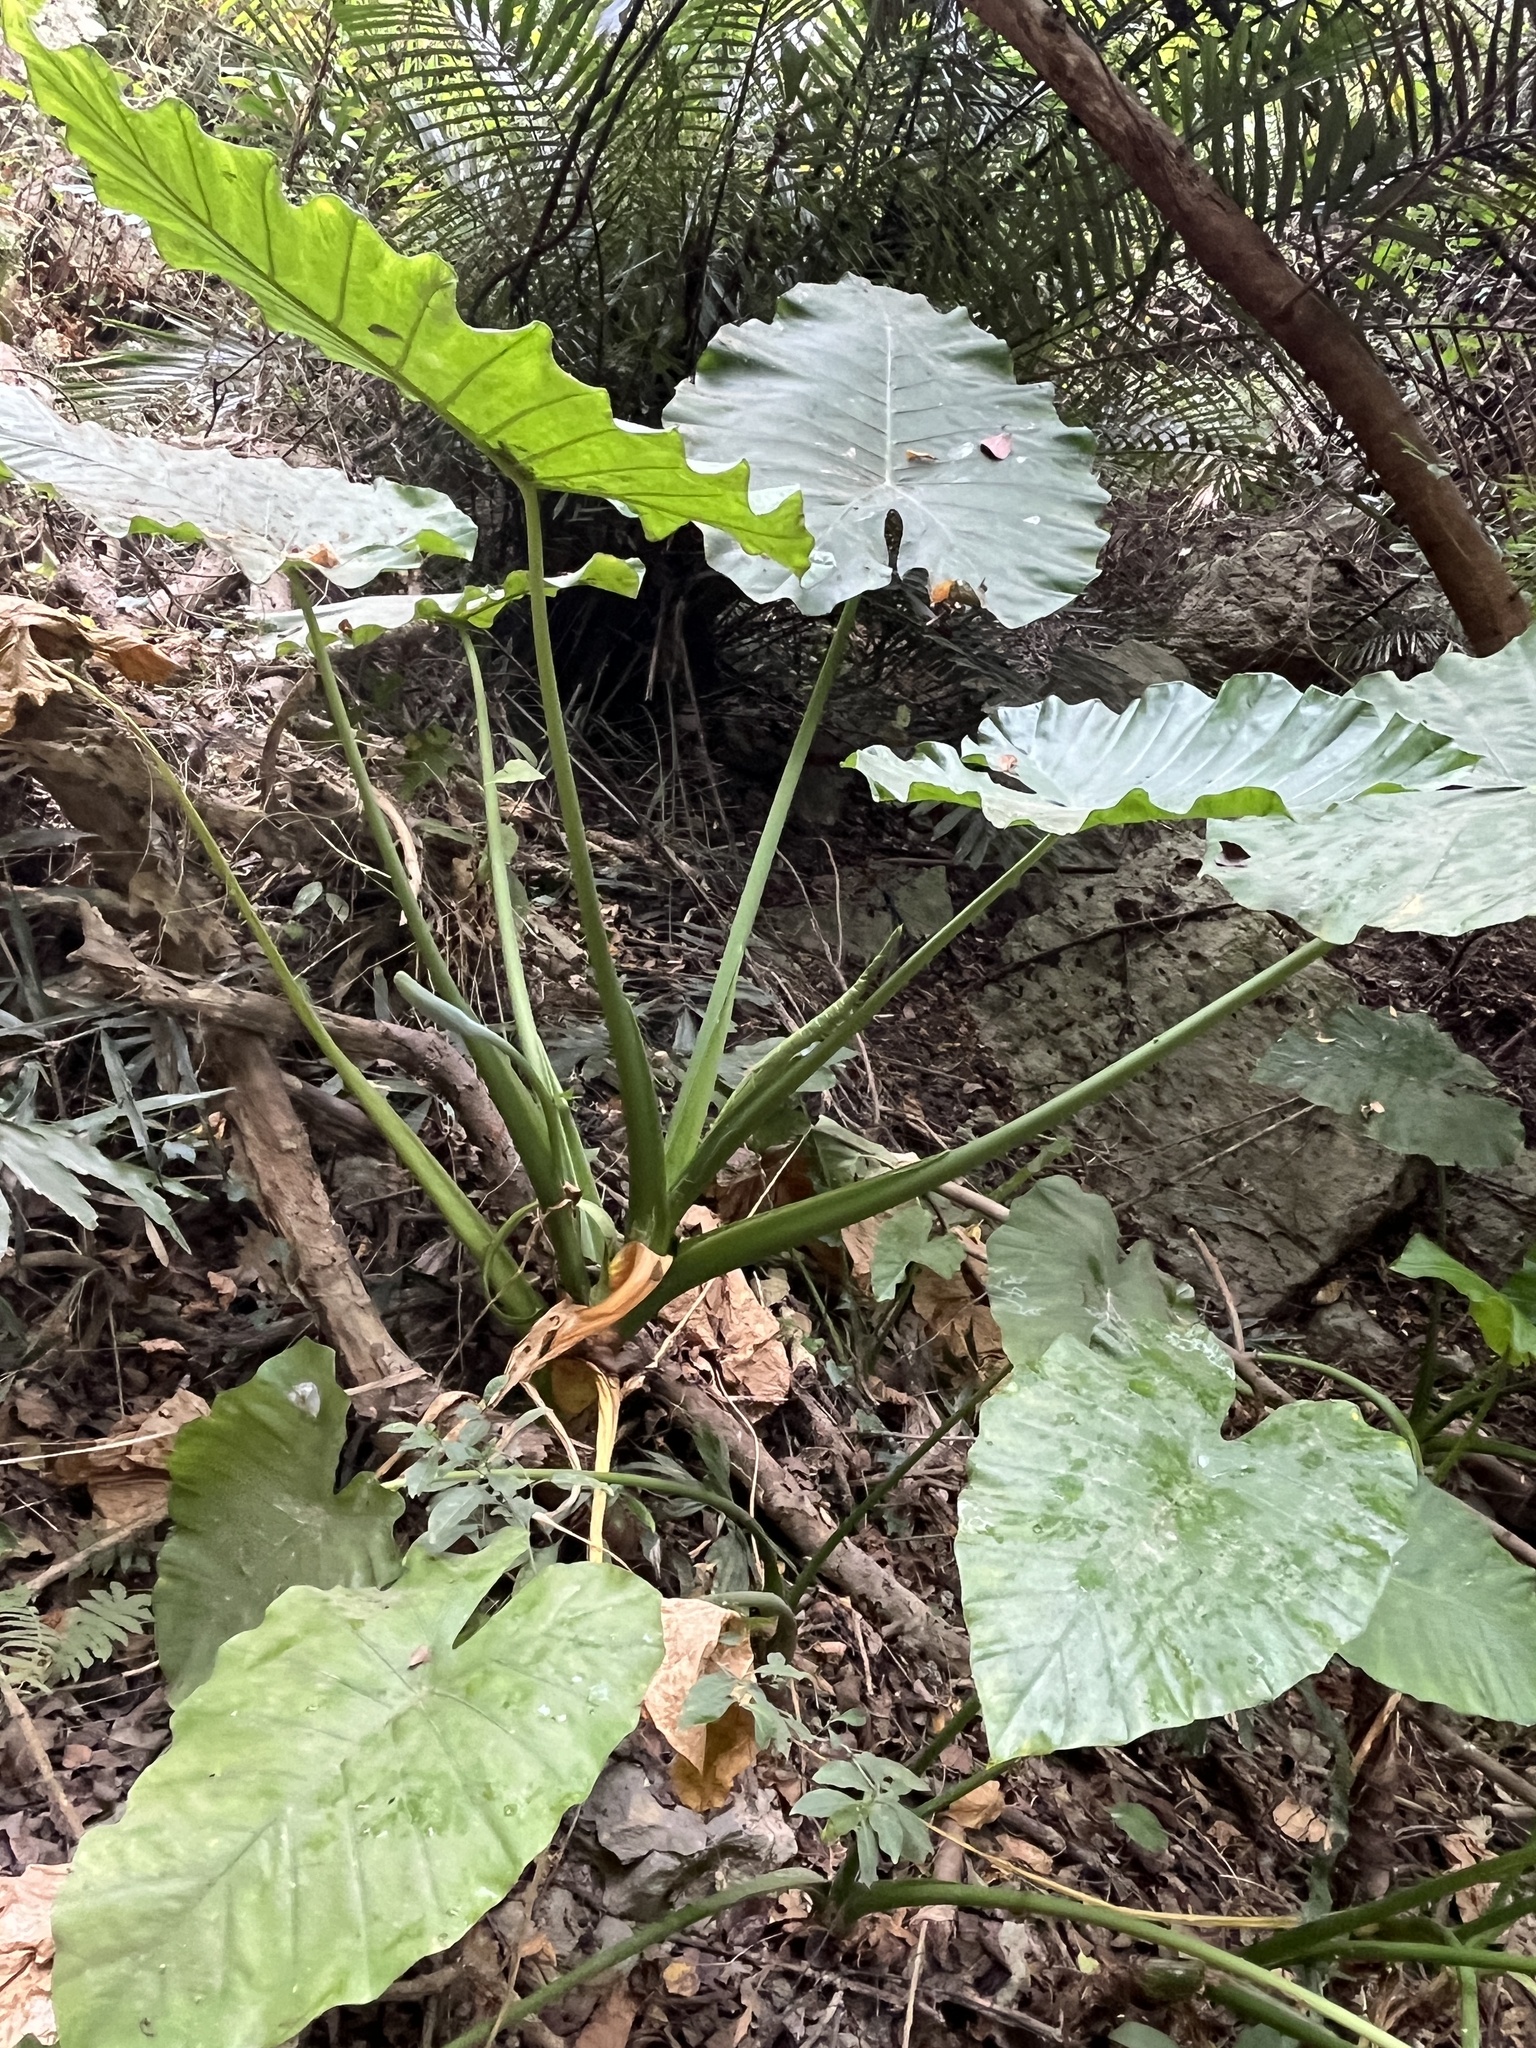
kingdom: Plantae
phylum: Tracheophyta
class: Liliopsida
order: Alismatales
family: Araceae
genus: Alocasia
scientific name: Alocasia odora
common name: Asian taro
